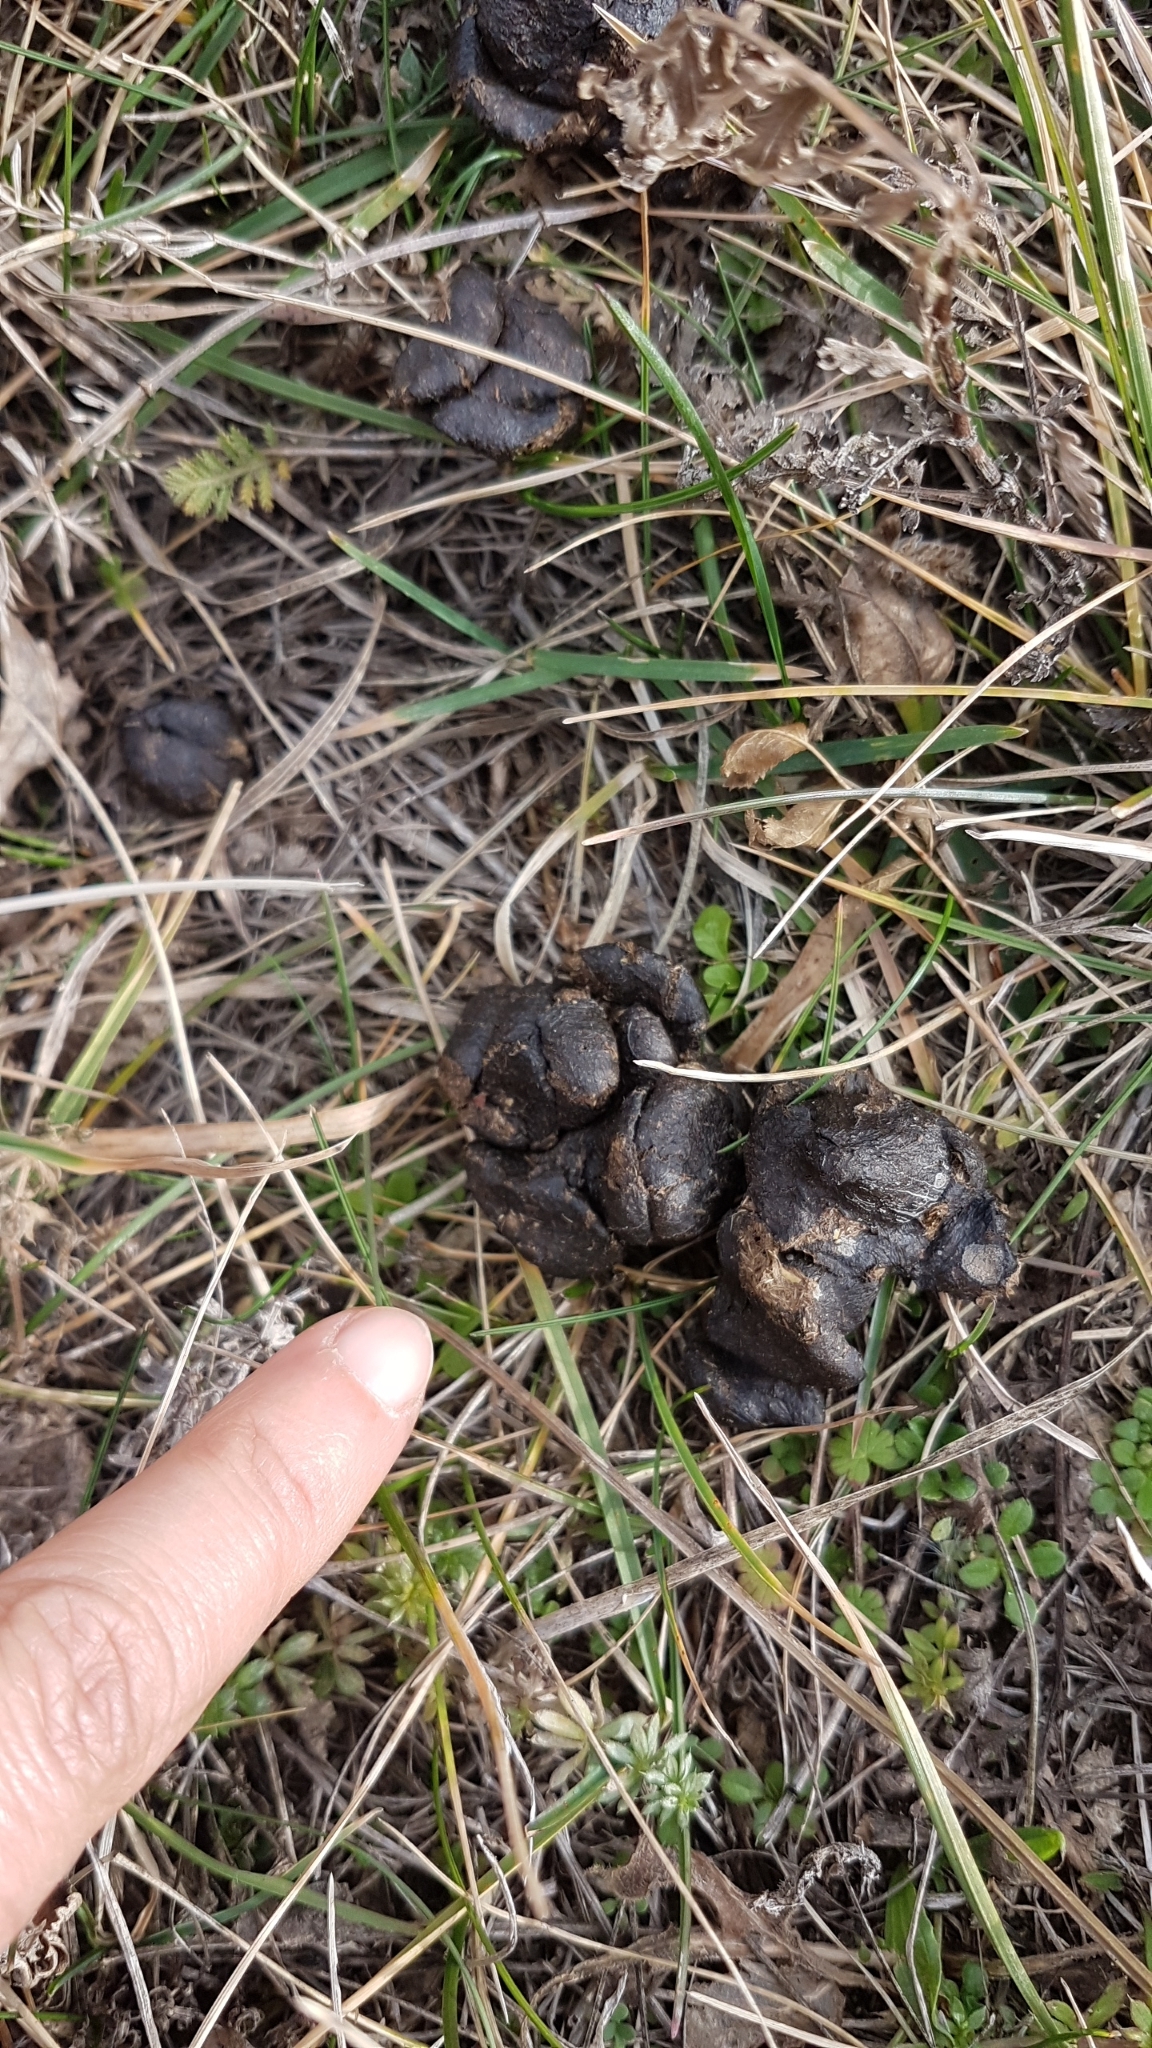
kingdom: Animalia
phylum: Chordata
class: Mammalia
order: Artiodactyla
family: Suidae
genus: Sus
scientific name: Sus scrofa
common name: Wild boar
